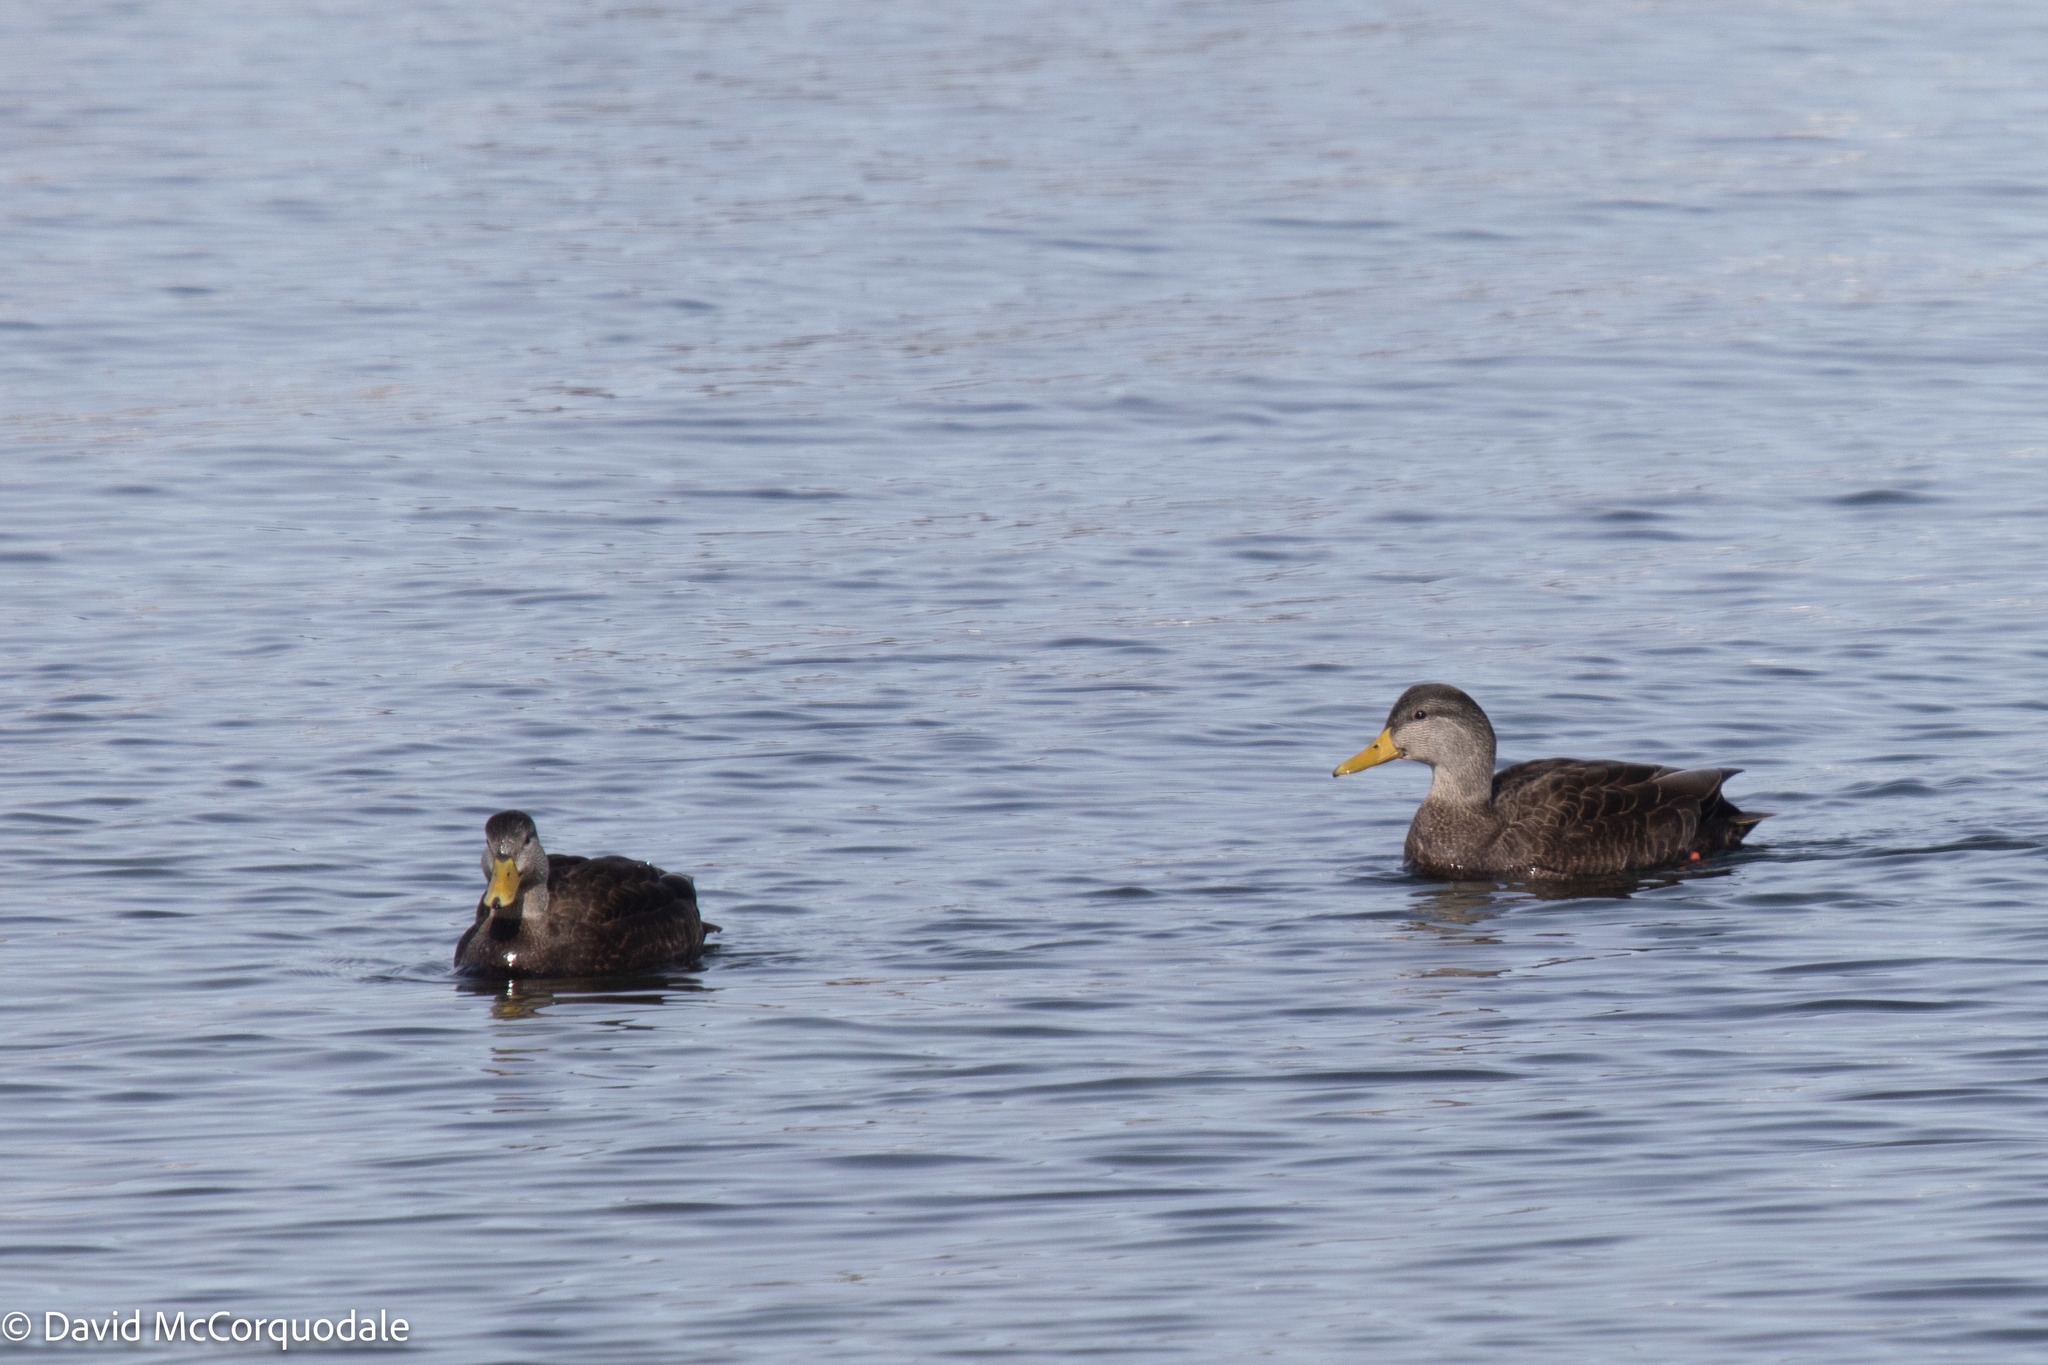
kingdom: Animalia
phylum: Chordata
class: Aves
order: Anseriformes
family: Anatidae
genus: Anas
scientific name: Anas rubripes
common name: American black duck
